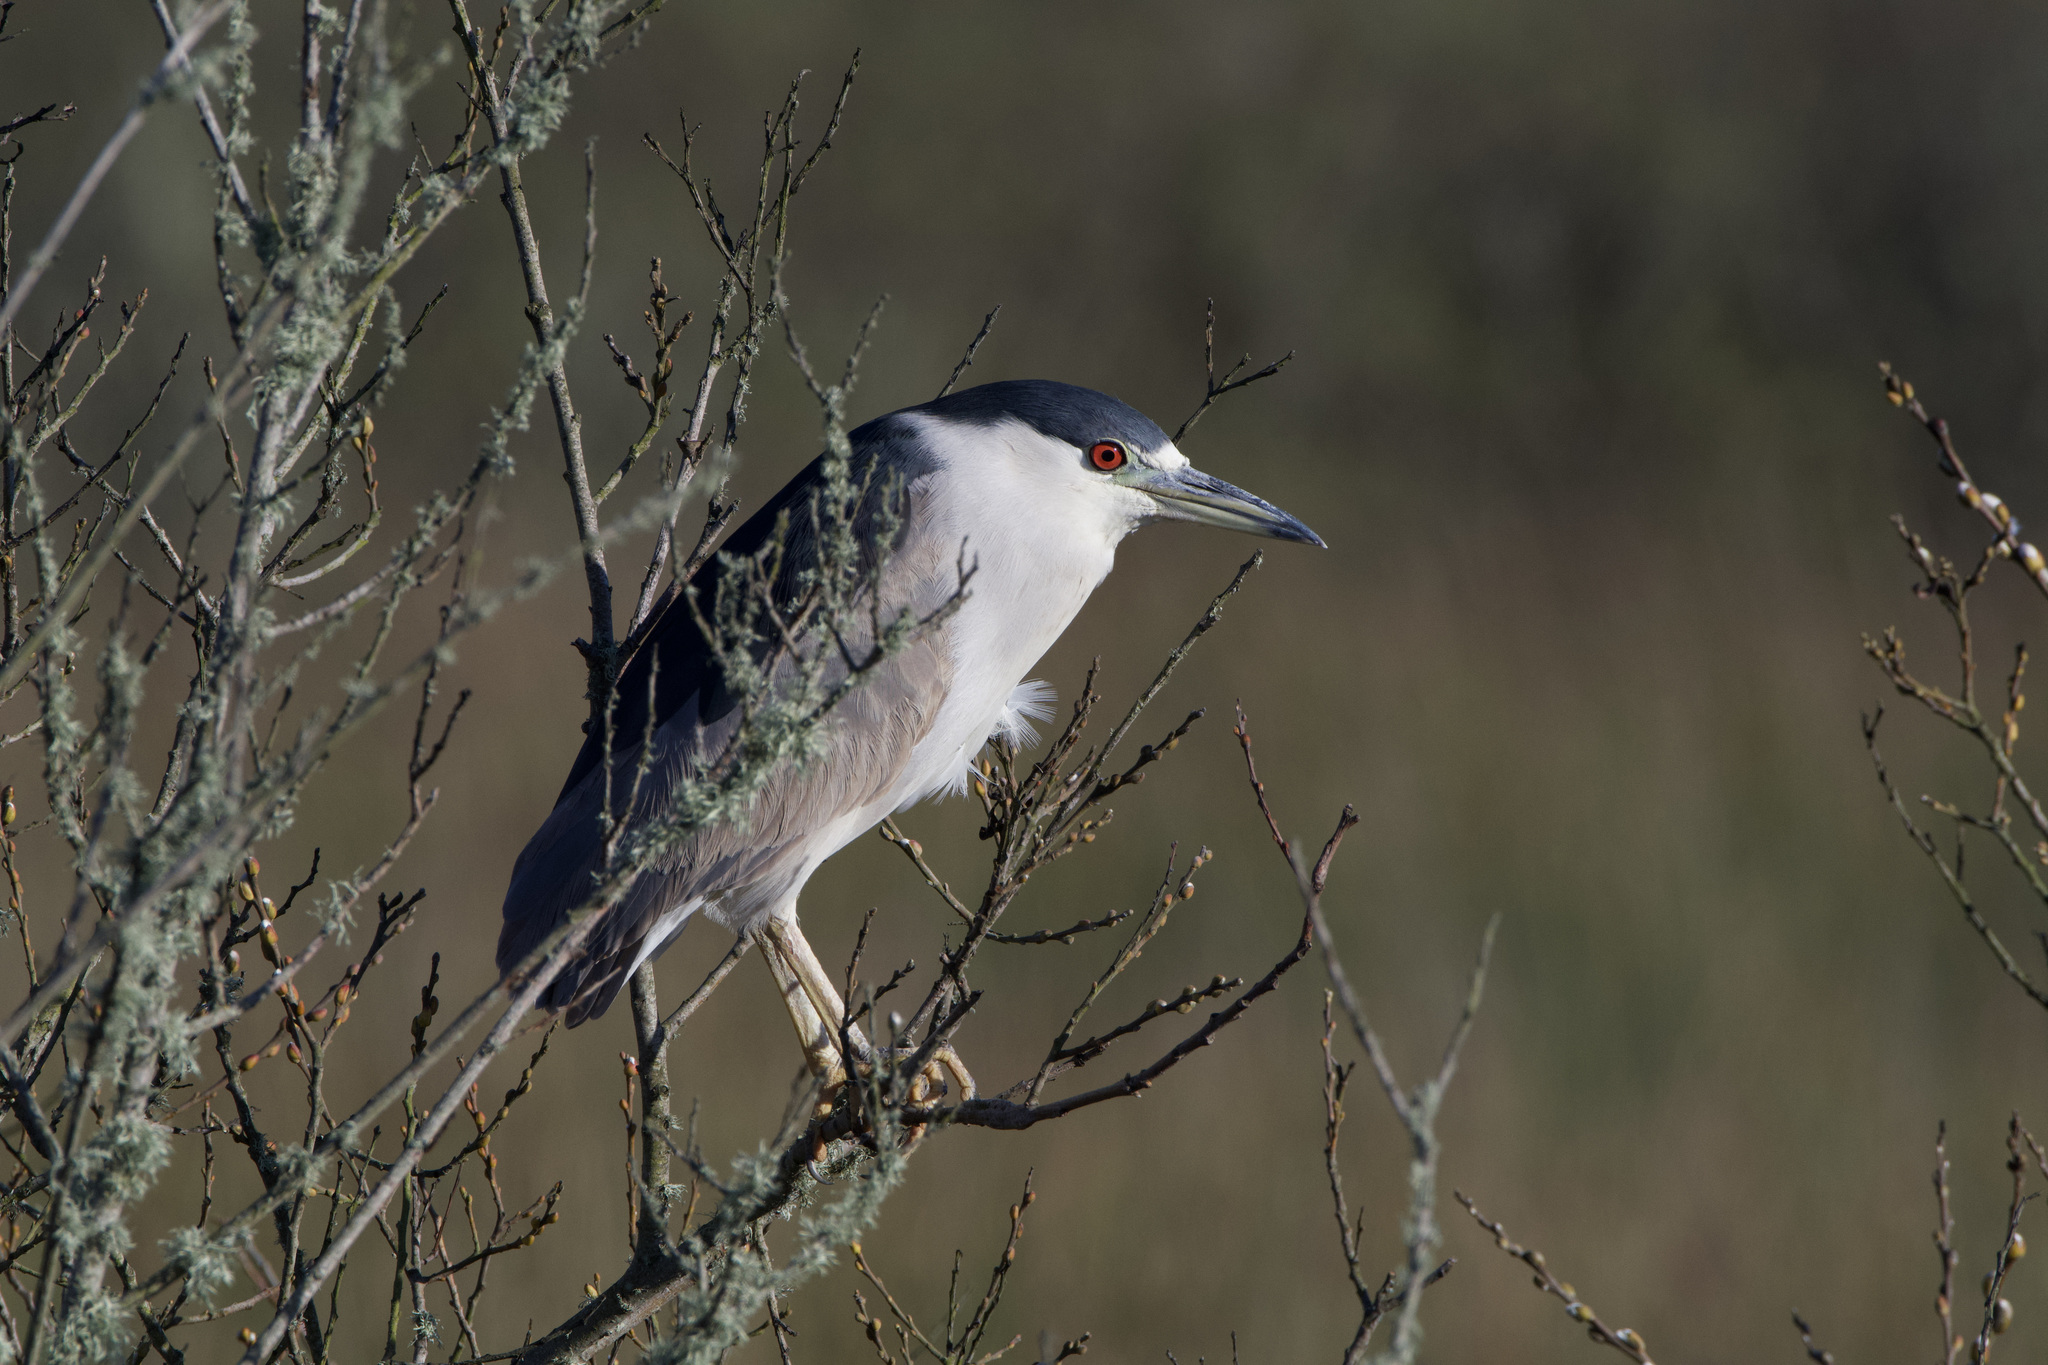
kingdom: Animalia
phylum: Chordata
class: Aves
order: Pelecaniformes
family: Ardeidae
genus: Nycticorax
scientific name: Nycticorax nycticorax
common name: Black-crowned night heron
